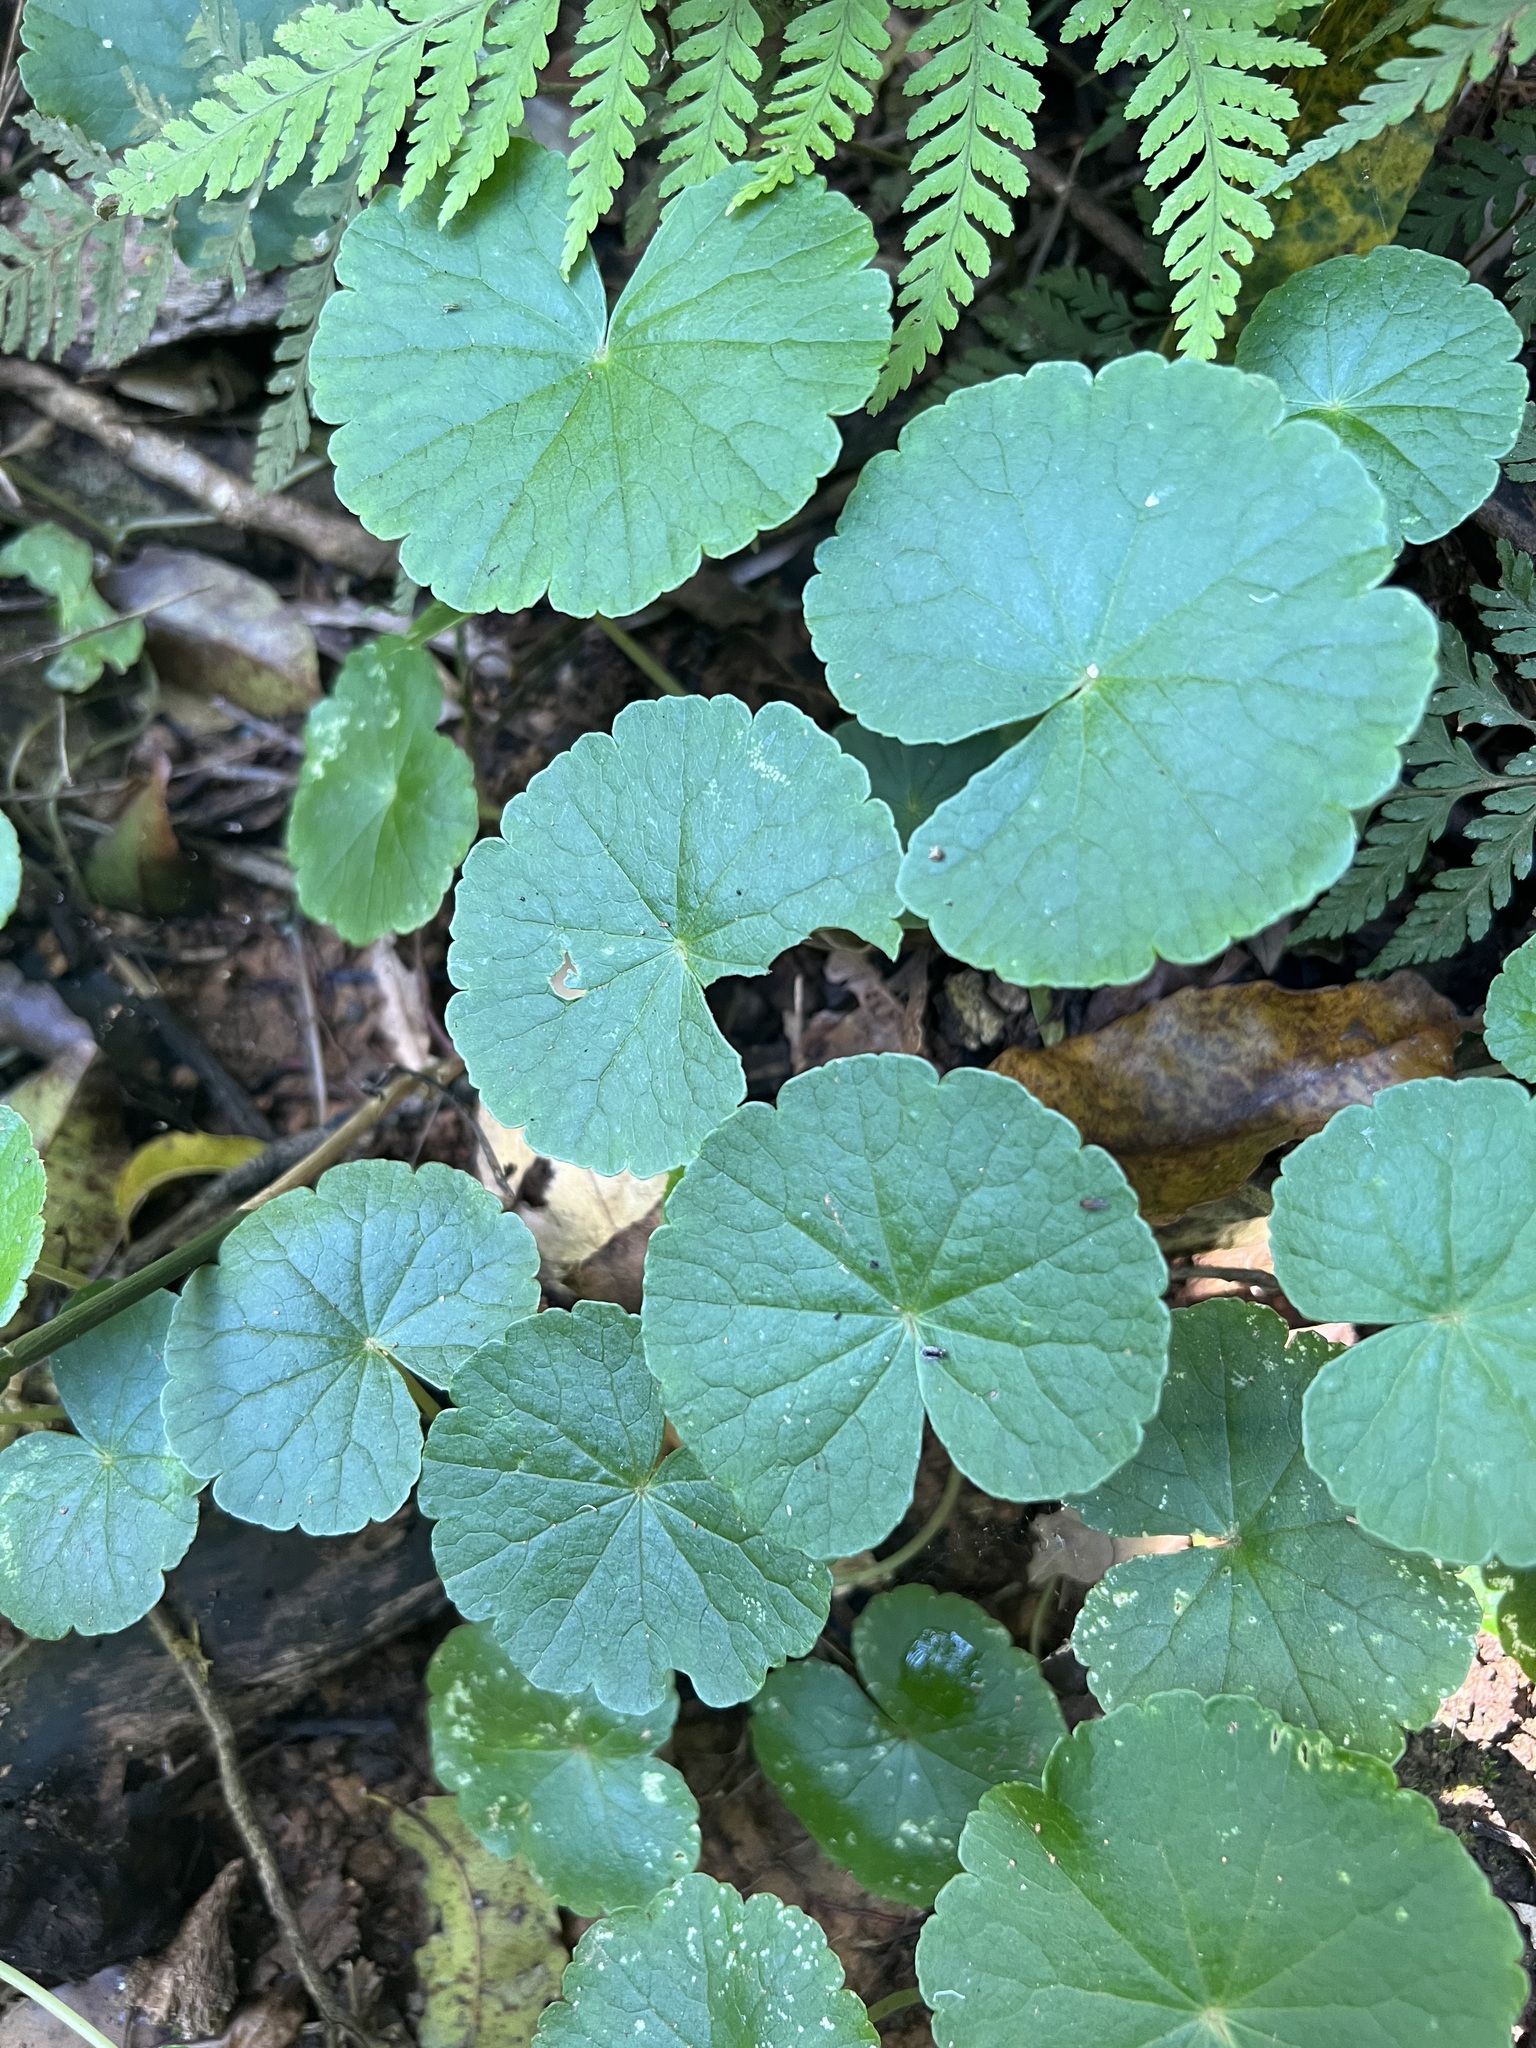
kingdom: Plantae
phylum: Tracheophyta
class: Magnoliopsida
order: Apiales
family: Araliaceae
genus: Hydrocotyle
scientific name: Hydrocotyle pedicellosa
